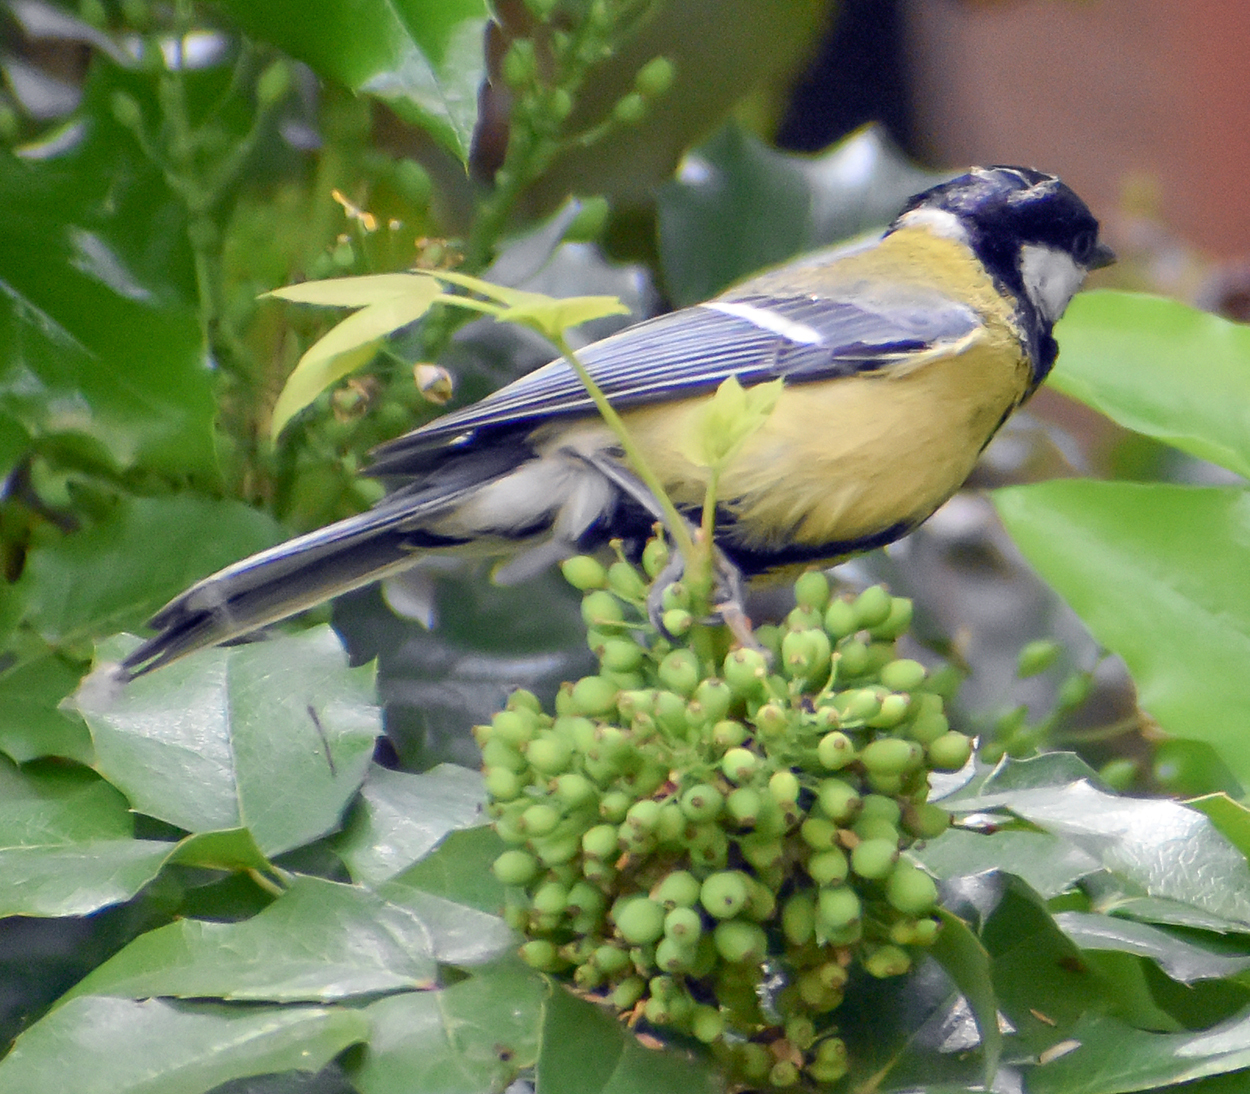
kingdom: Animalia
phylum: Chordata
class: Aves
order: Passeriformes
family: Paridae
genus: Parus
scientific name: Parus major
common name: Great tit
